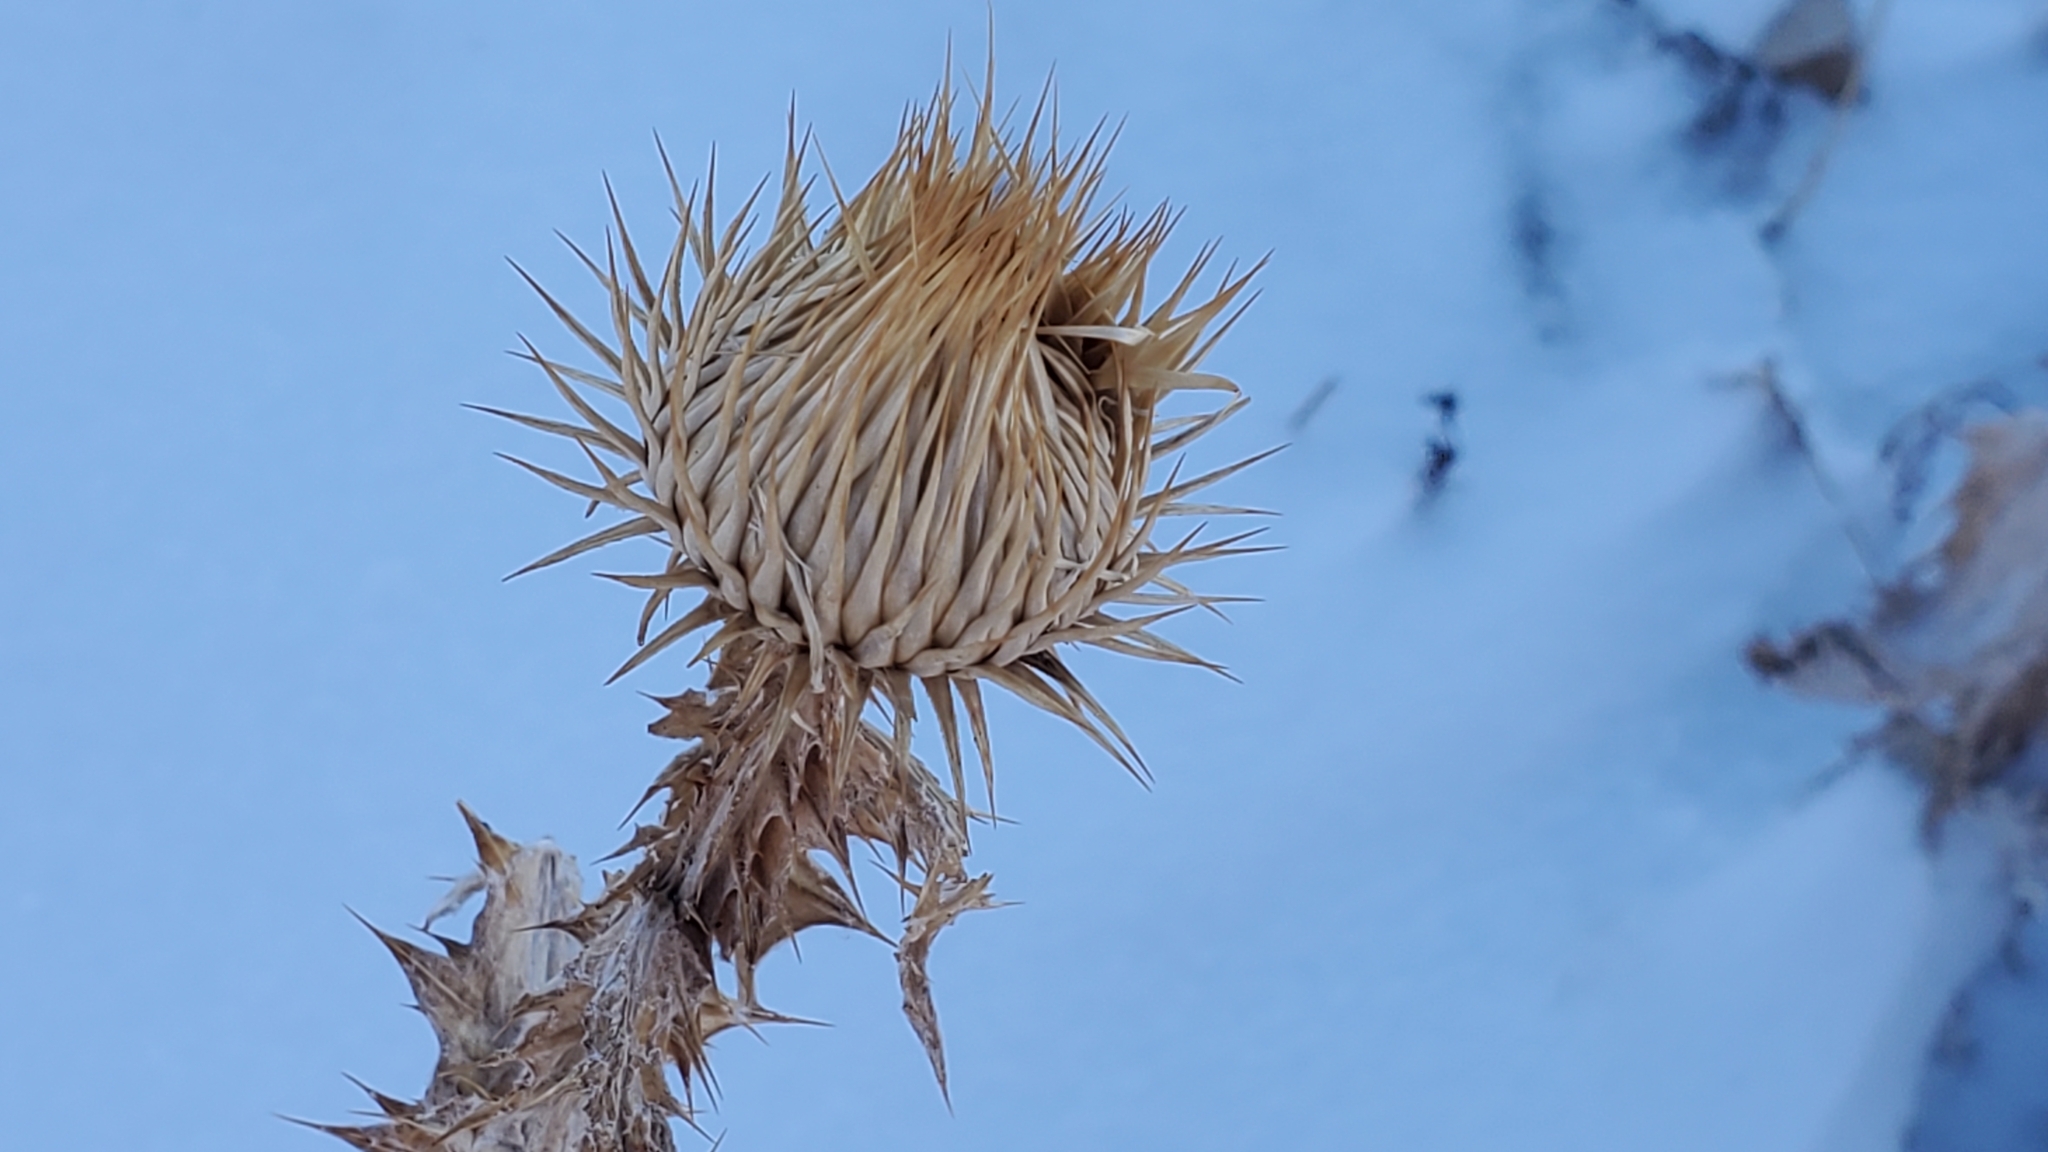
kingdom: Plantae
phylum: Tracheophyta
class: Magnoliopsida
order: Asterales
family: Asteraceae
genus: Onopordum
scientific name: Onopordum acanthium
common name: Scotch thistle
